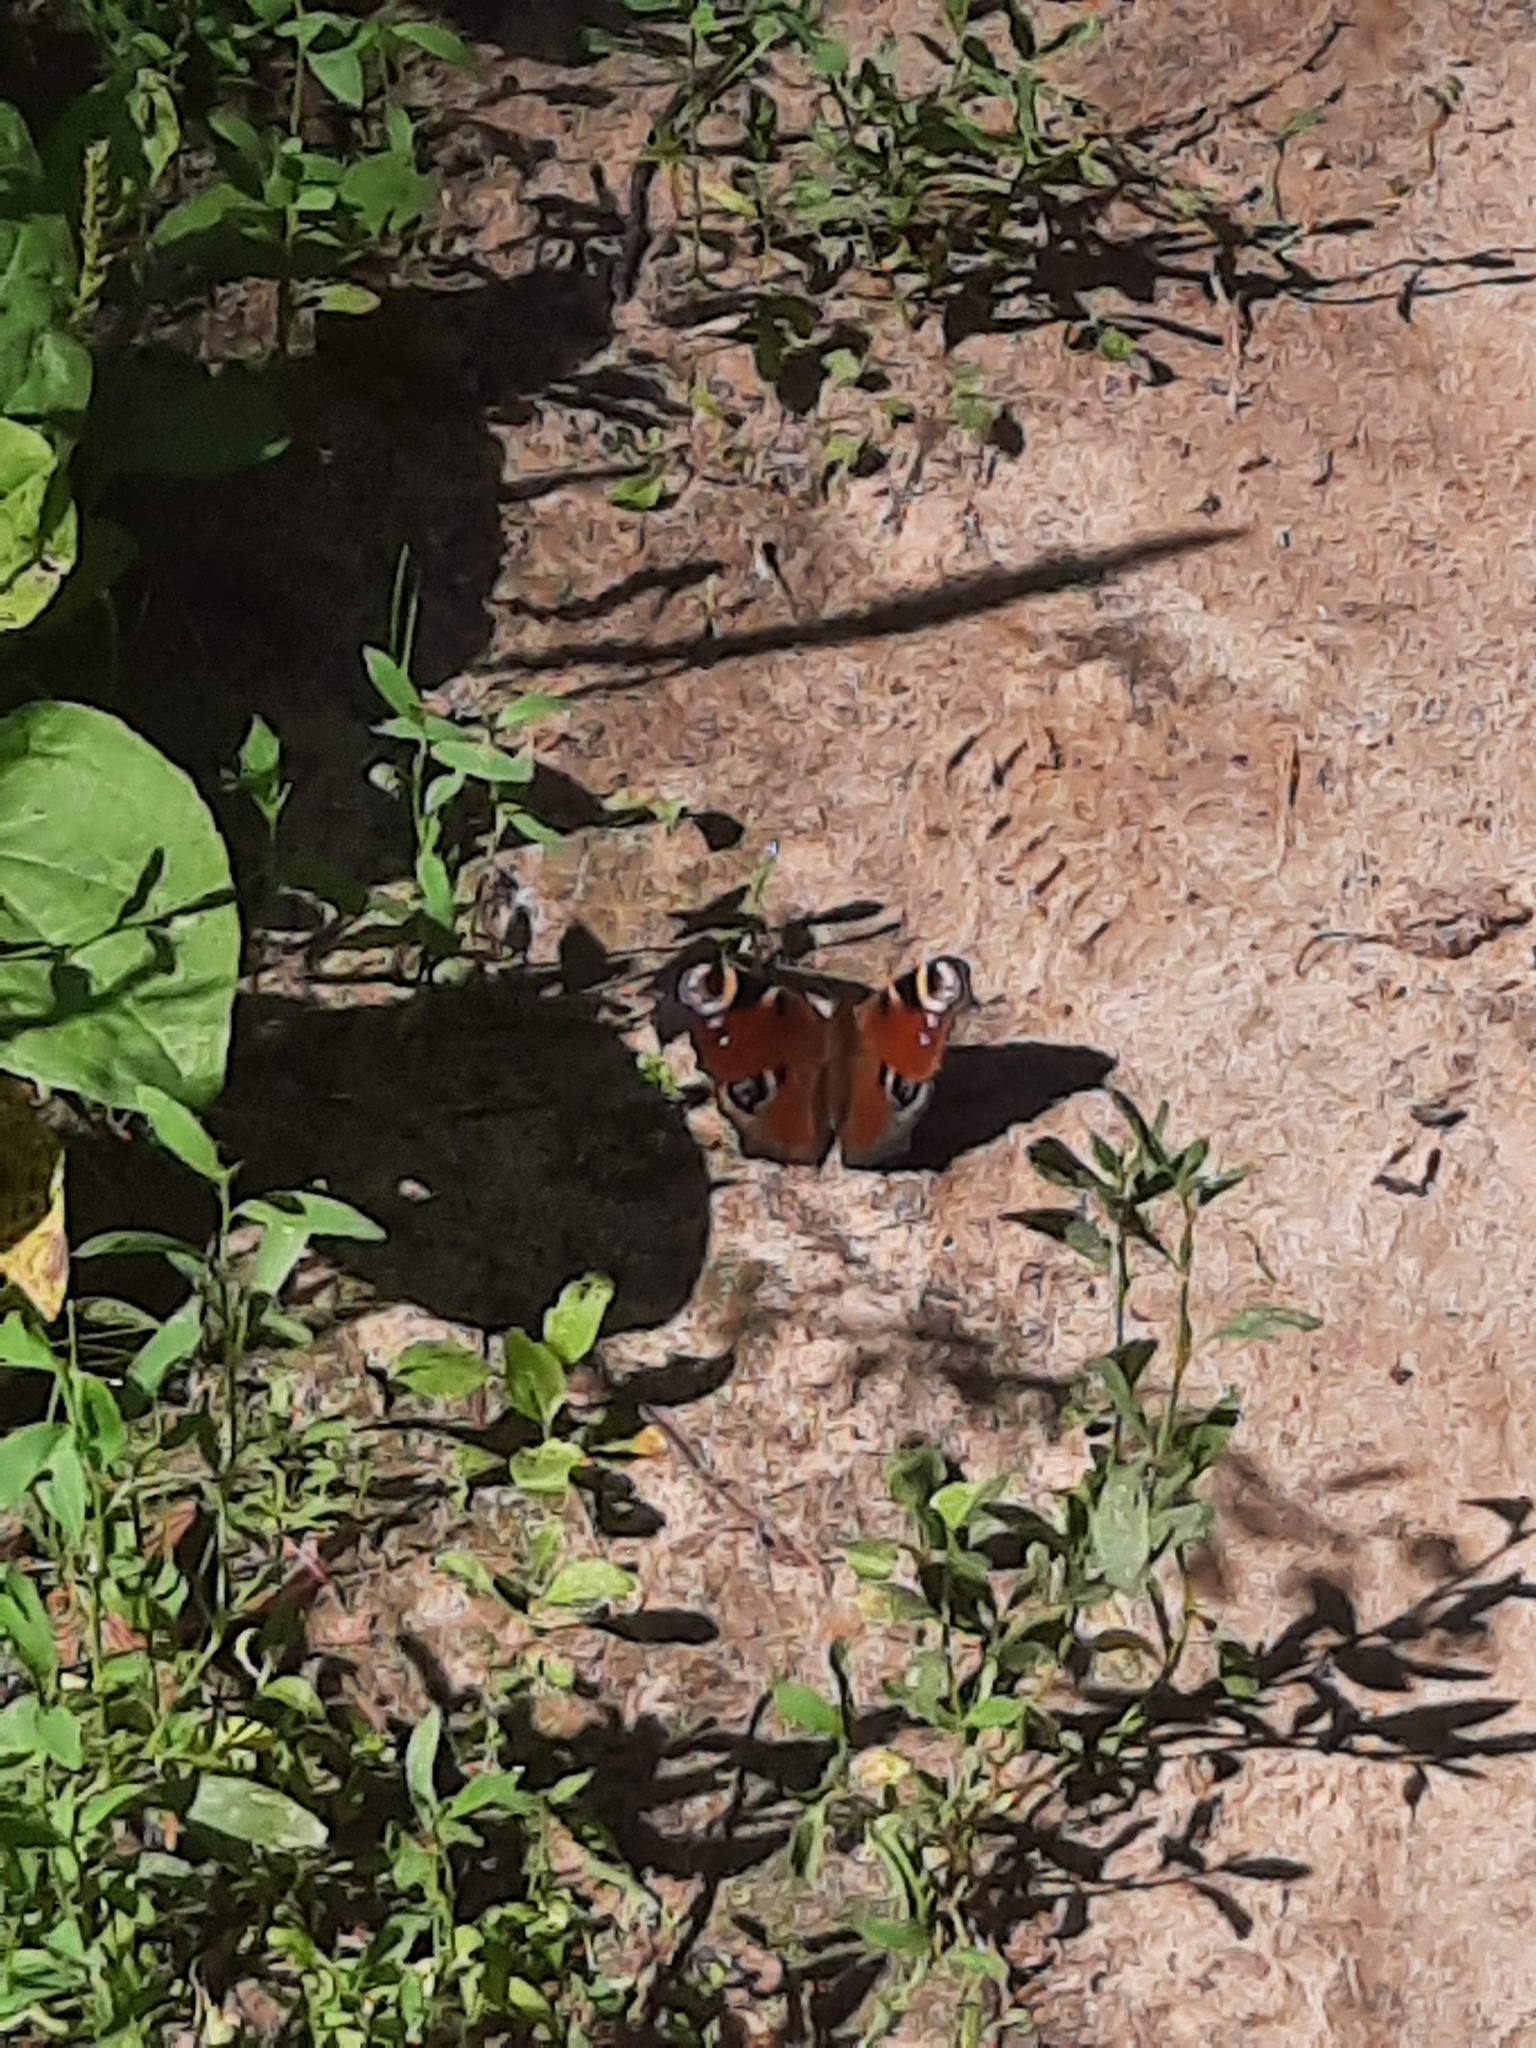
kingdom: Animalia
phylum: Arthropoda
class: Insecta
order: Lepidoptera
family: Nymphalidae
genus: Aglais
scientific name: Aglais io
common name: Peacock
